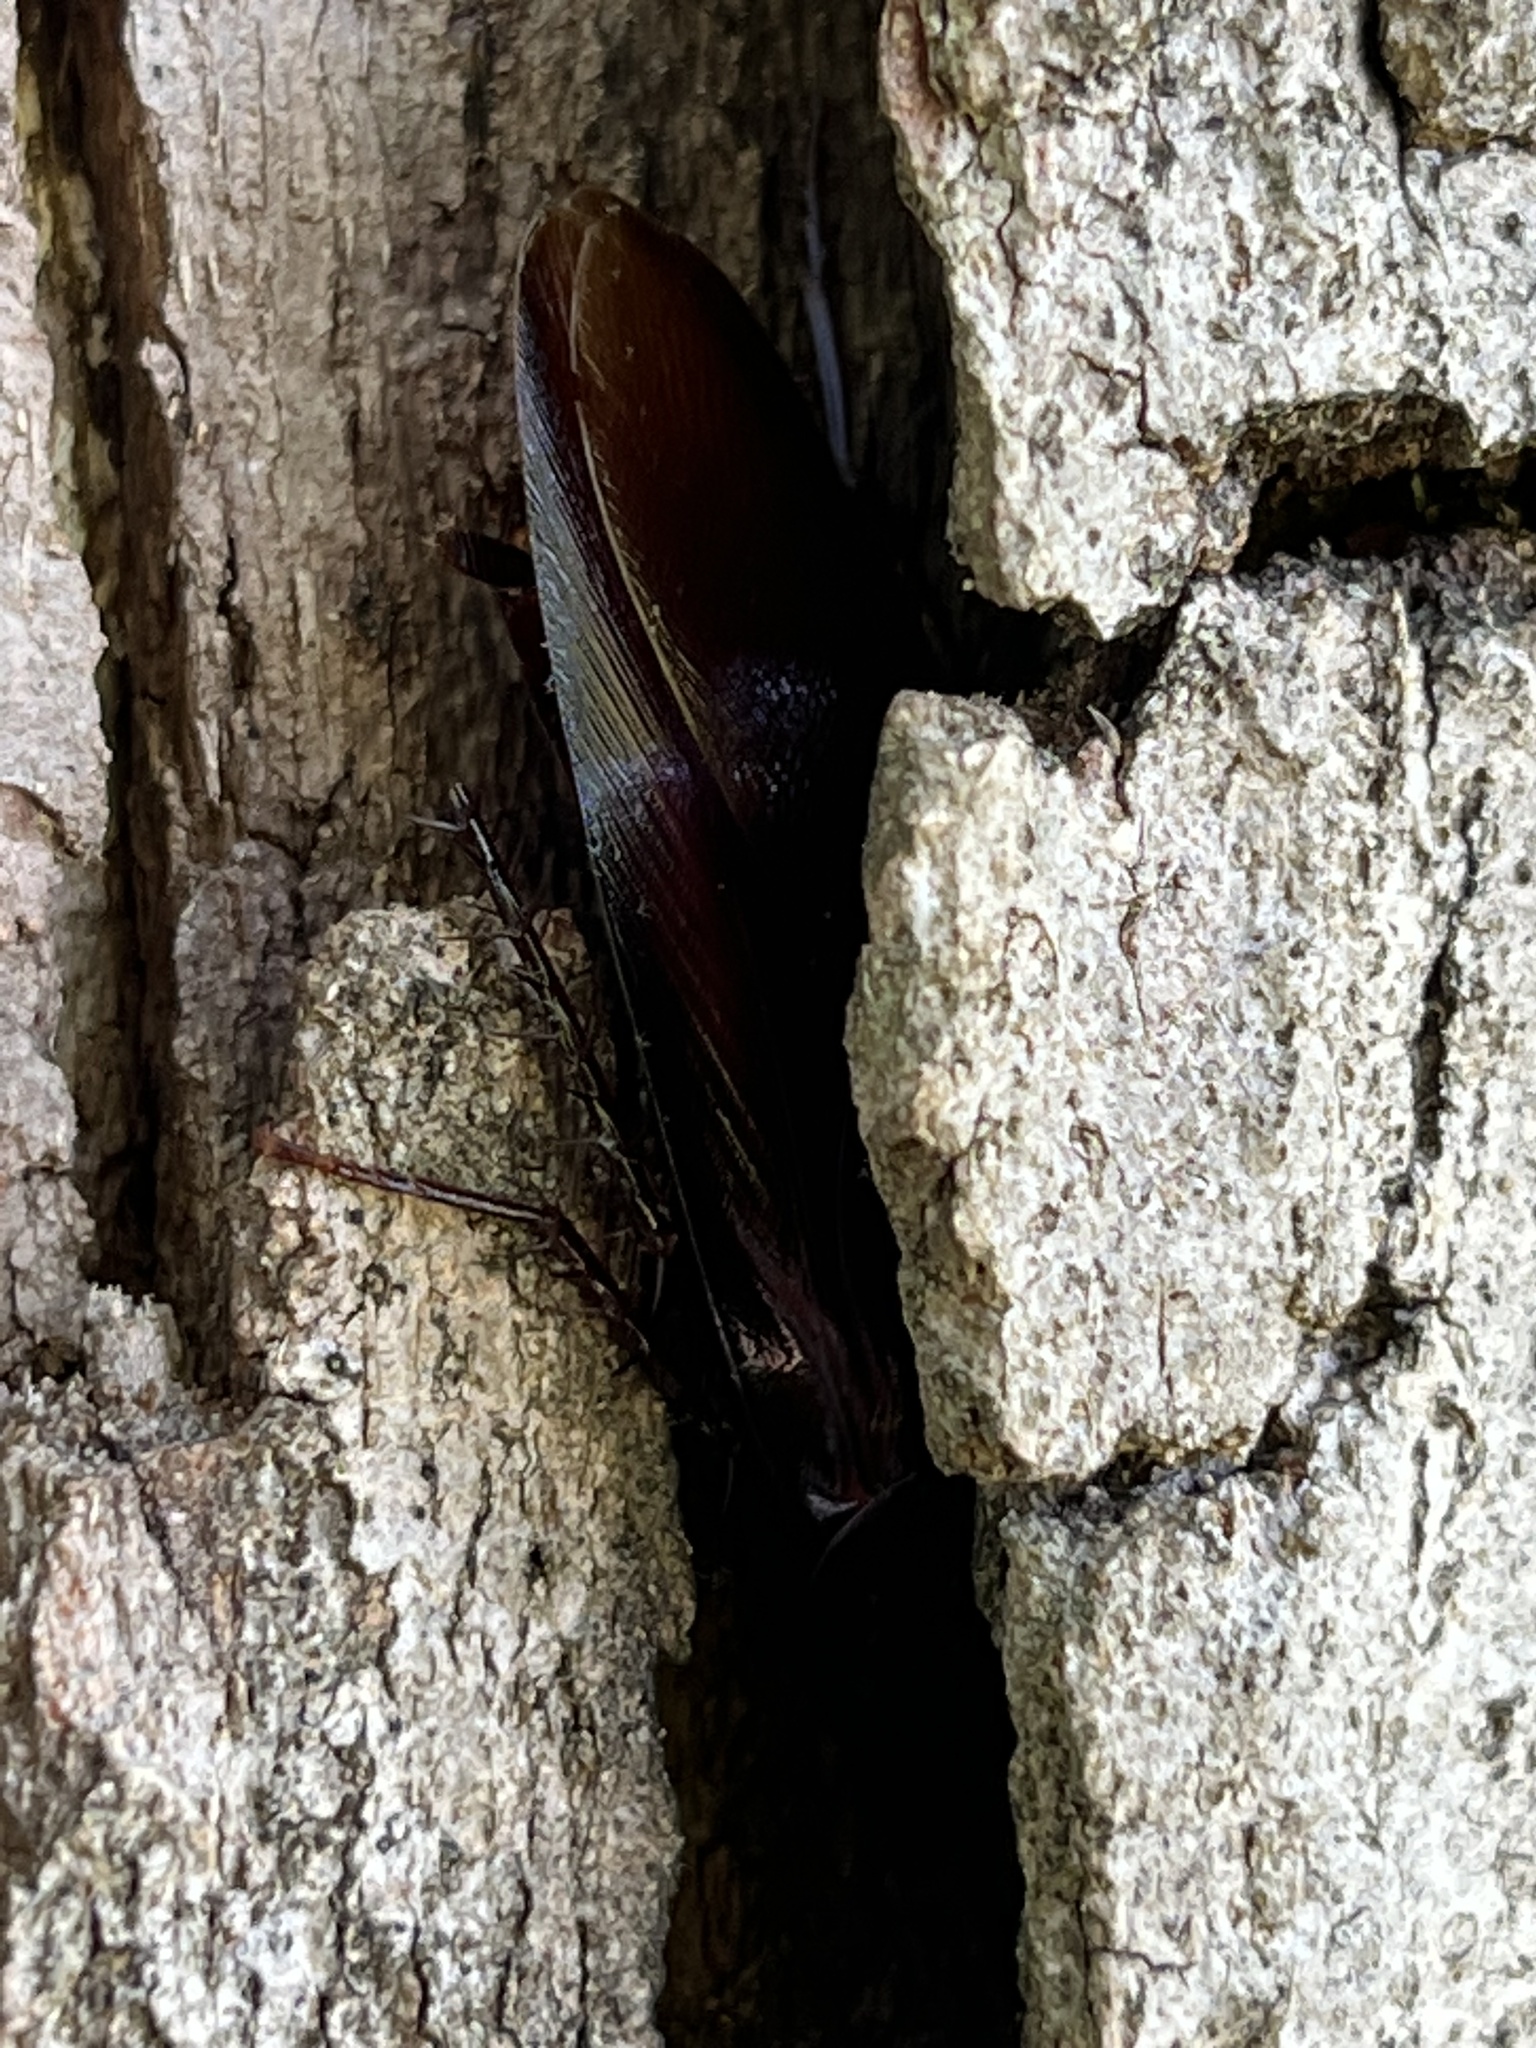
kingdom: Animalia
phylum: Arthropoda
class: Insecta
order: Blattodea
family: Blattidae
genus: Periplaneta
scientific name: Periplaneta fuliginosa
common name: Smokeybrown cockroad
